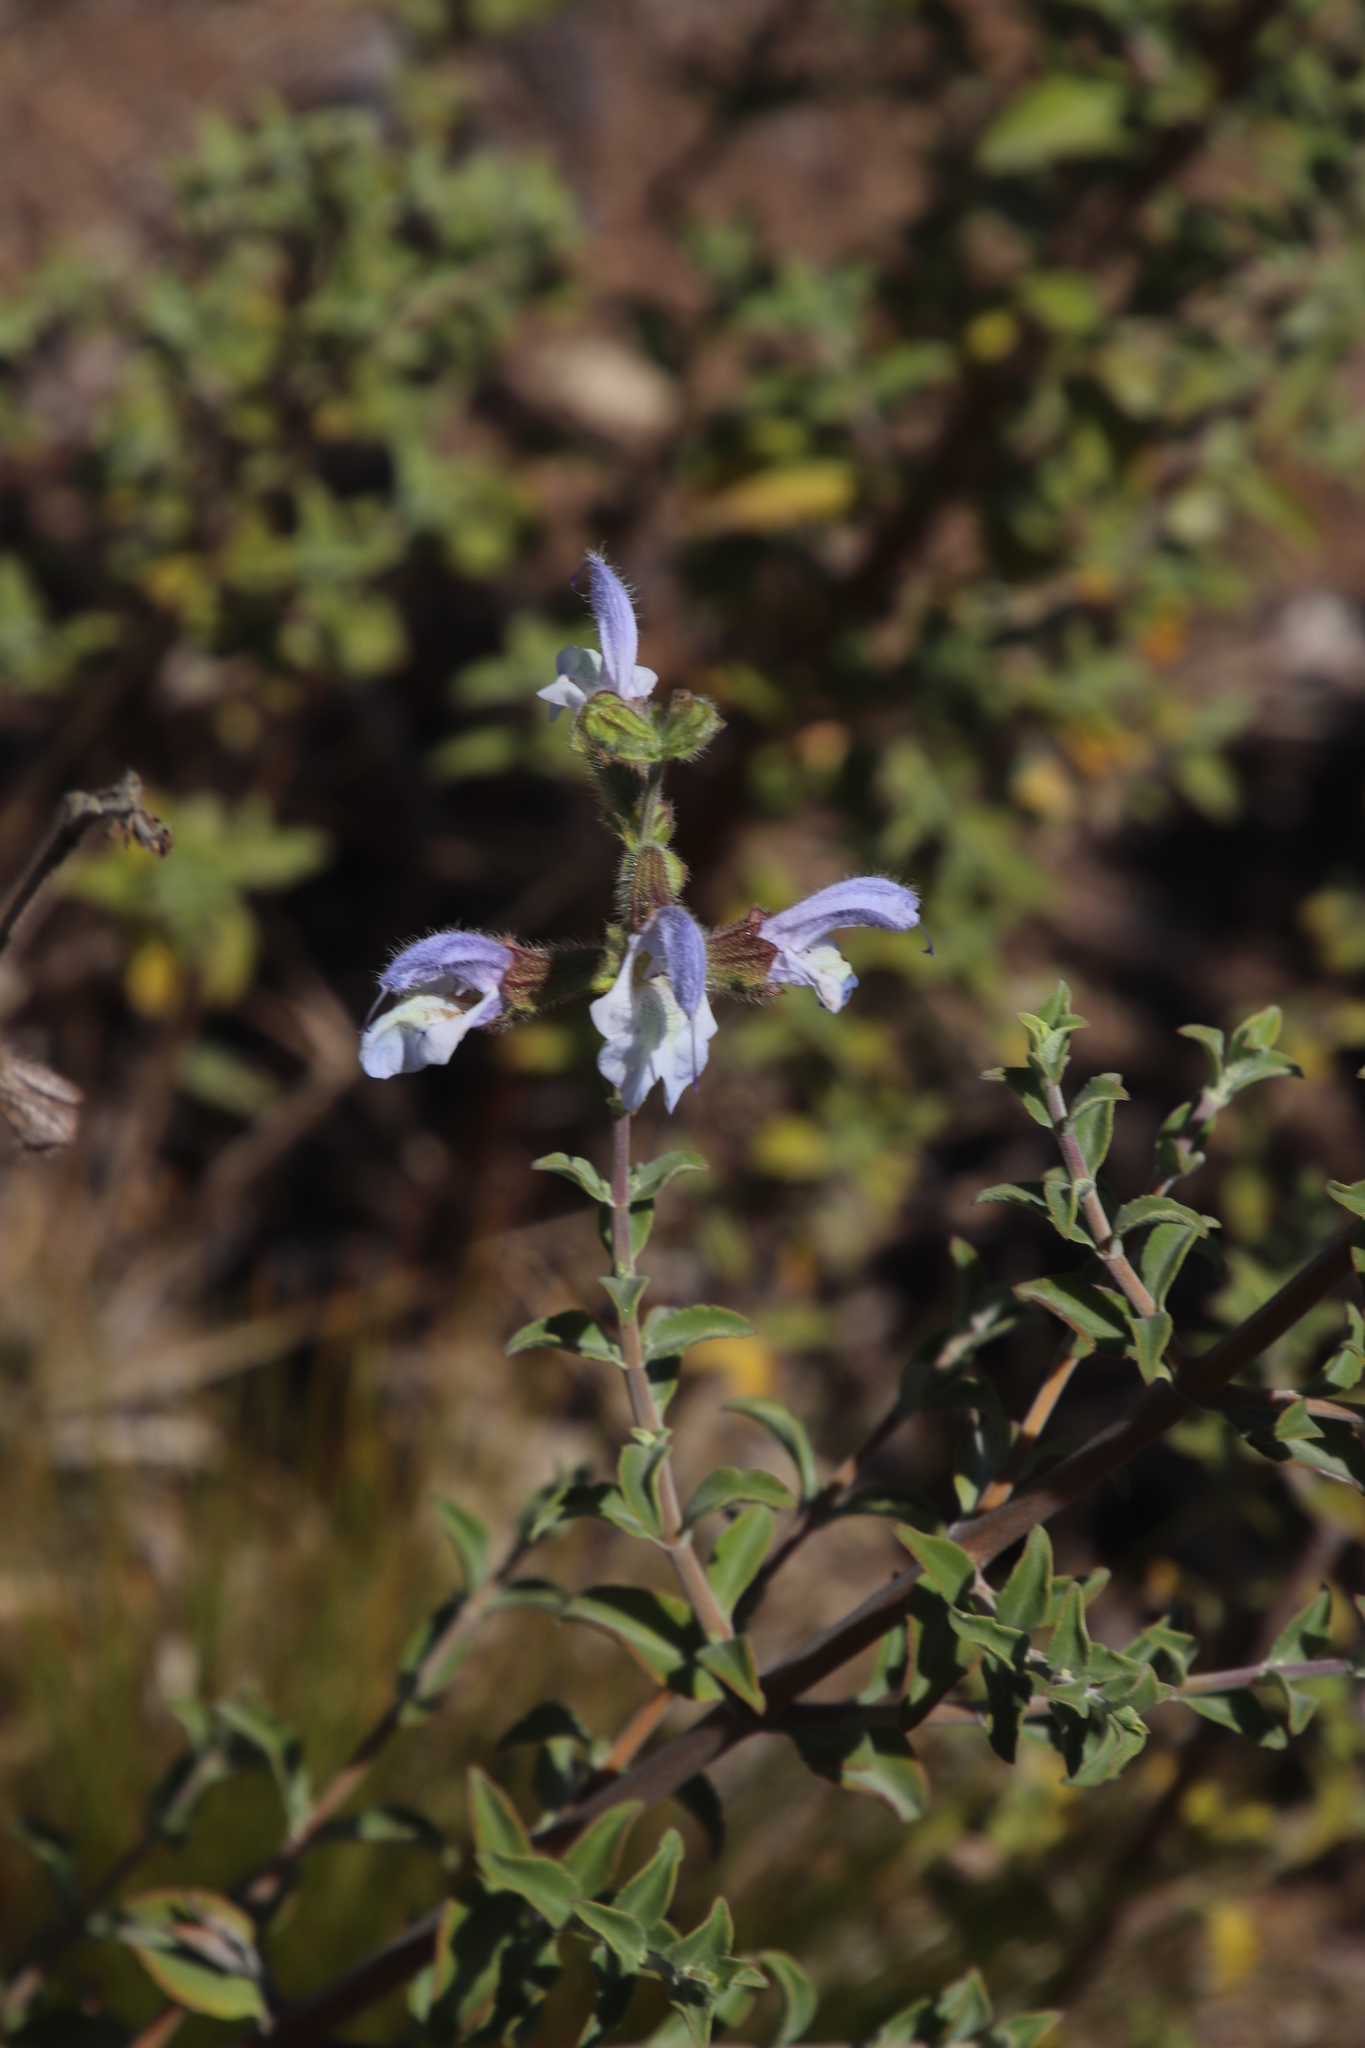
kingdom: Plantae
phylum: Tracheophyta
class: Magnoliopsida
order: Lamiales
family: Lamiaceae
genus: Salvia
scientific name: Salvia africana
